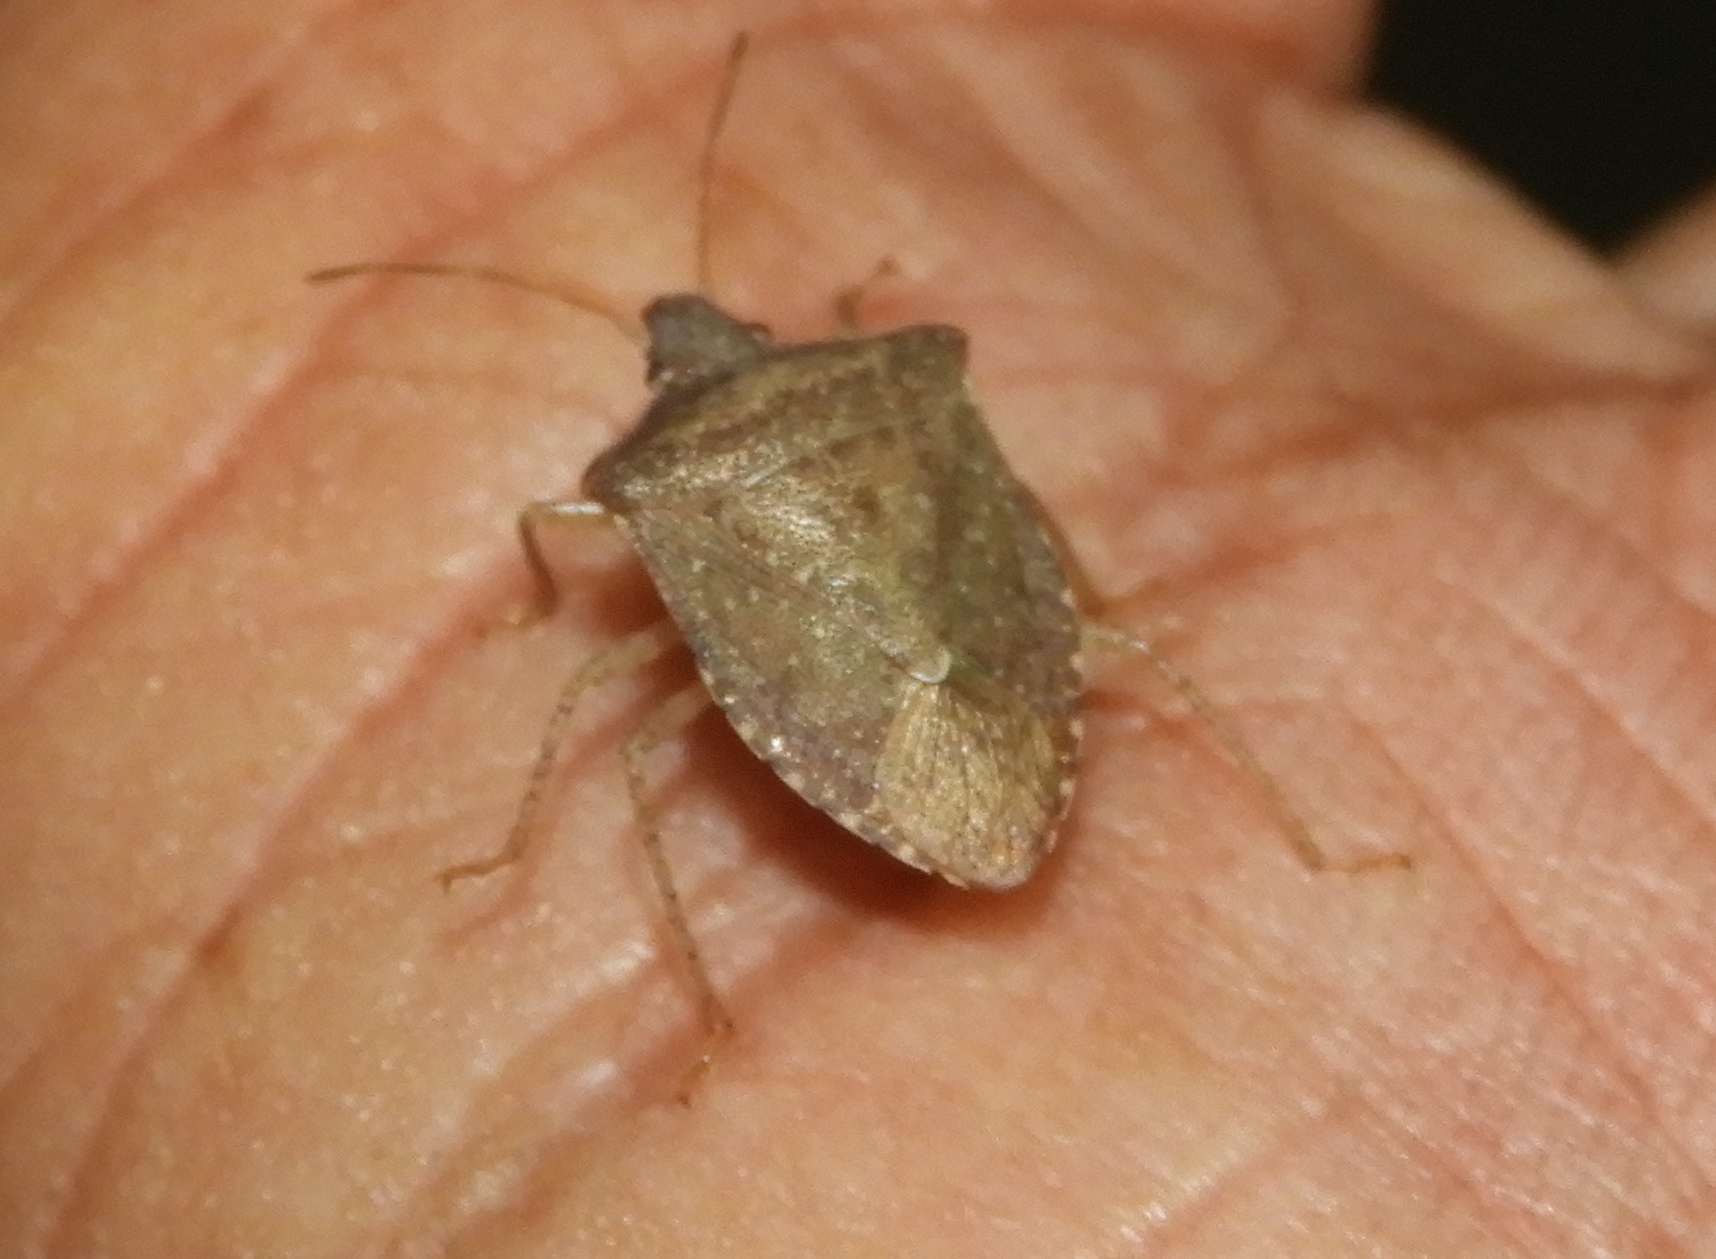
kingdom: Animalia
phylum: Arthropoda
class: Insecta
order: Hemiptera
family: Pentatomidae
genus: Euschistus
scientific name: Euschistus
